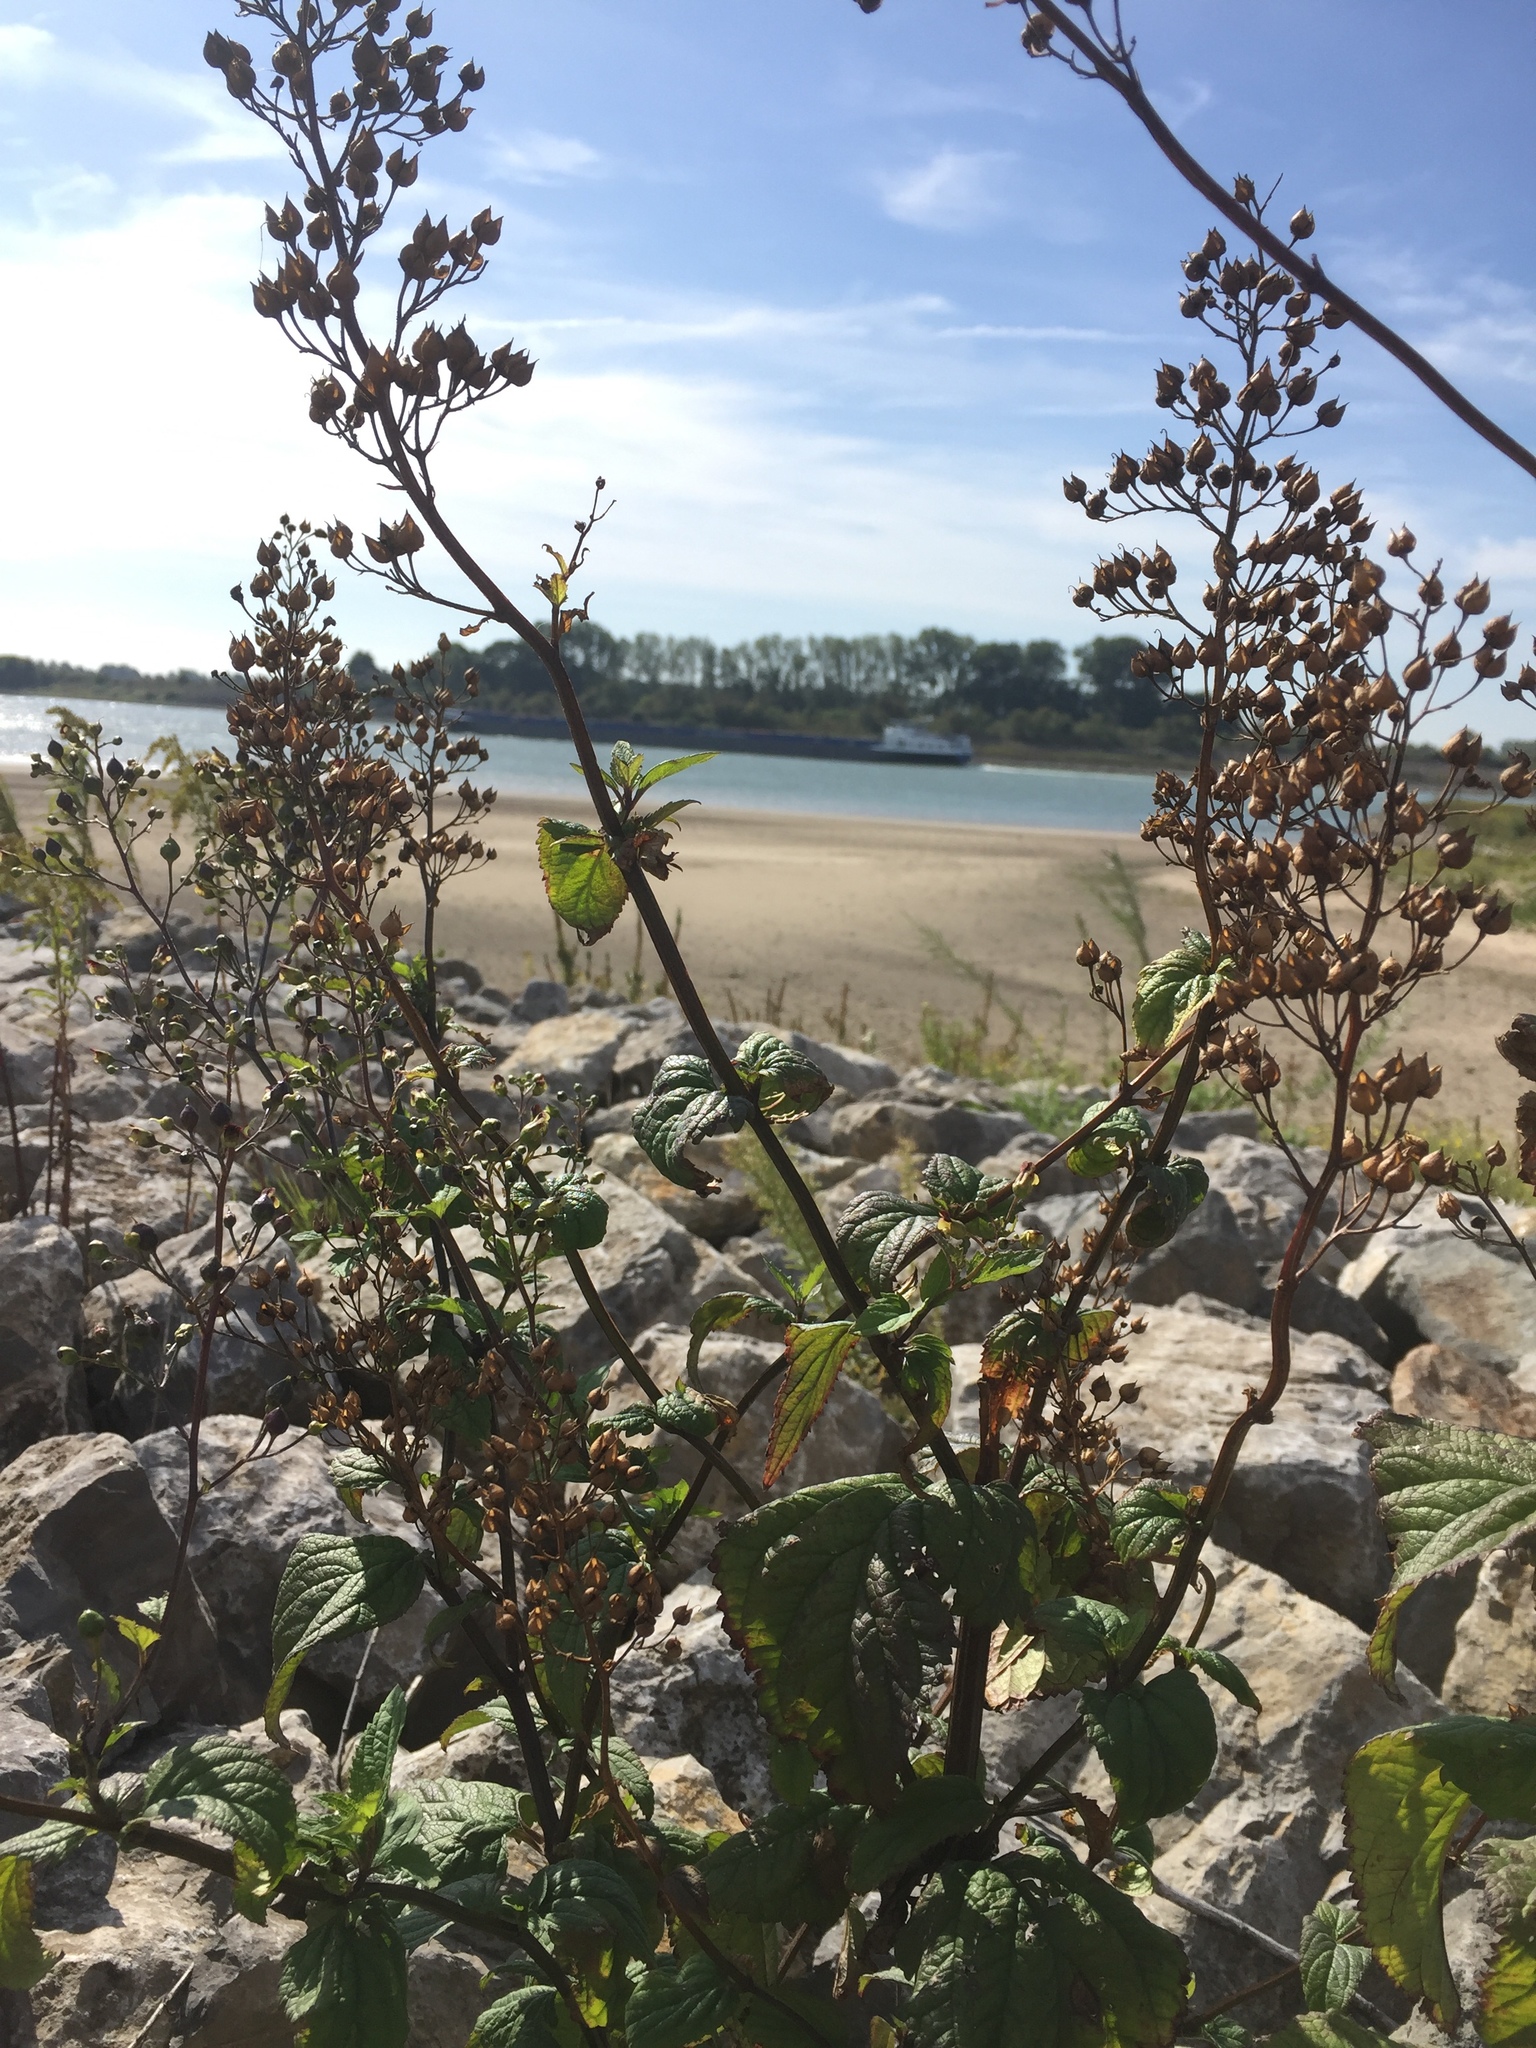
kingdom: Plantae
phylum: Tracheophyta
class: Magnoliopsida
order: Lamiales
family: Scrophulariaceae
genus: Scrophularia
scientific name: Scrophularia nodosa
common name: Common figwort
